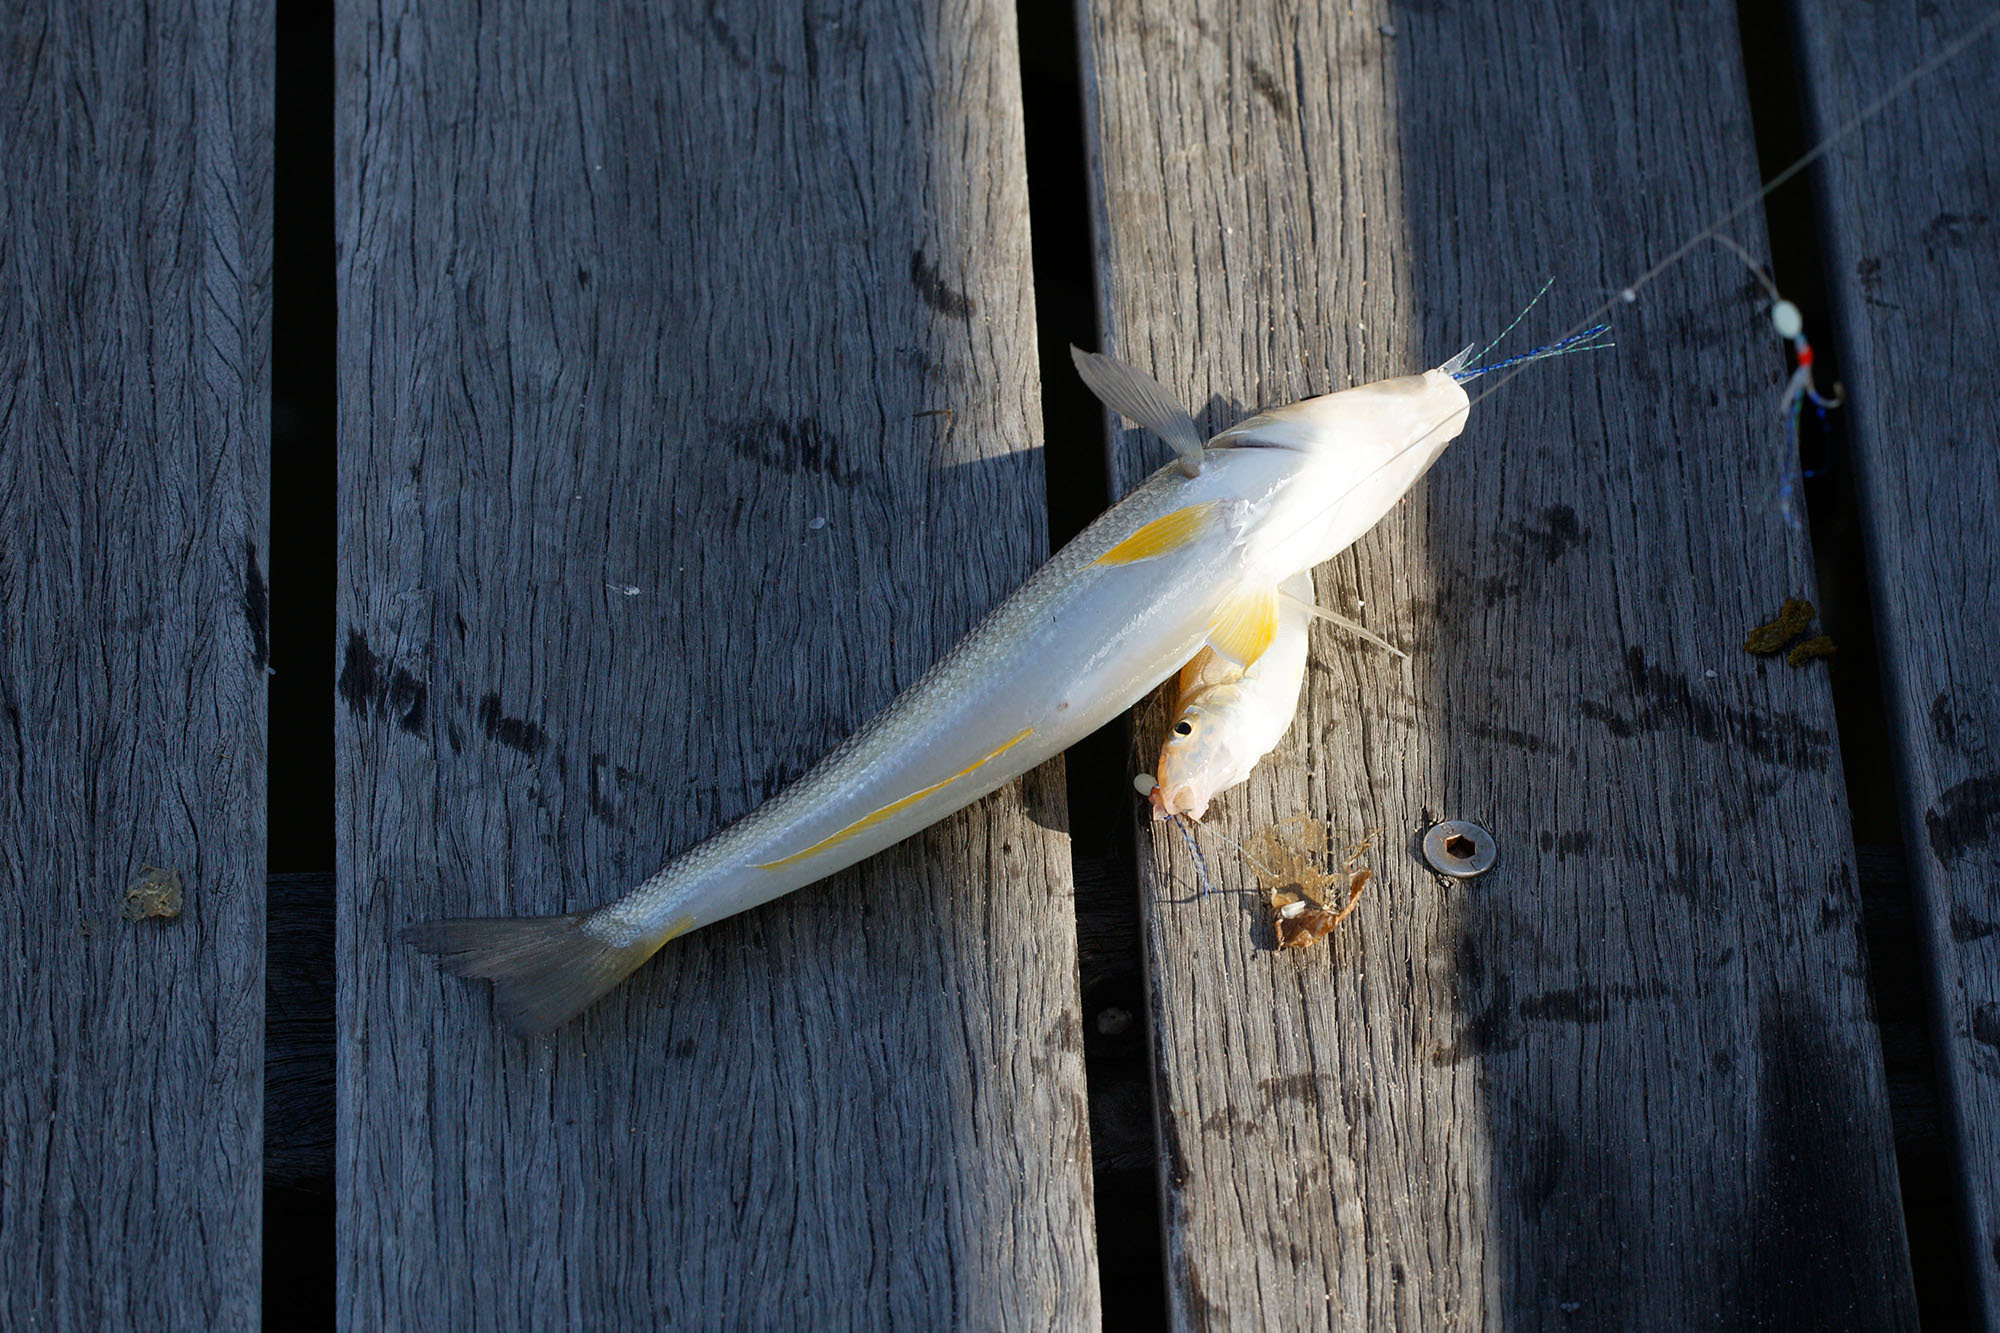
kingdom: Animalia
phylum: Chordata
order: Perciformes
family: Sillaginidae
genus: Sillago
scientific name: Sillago analis
